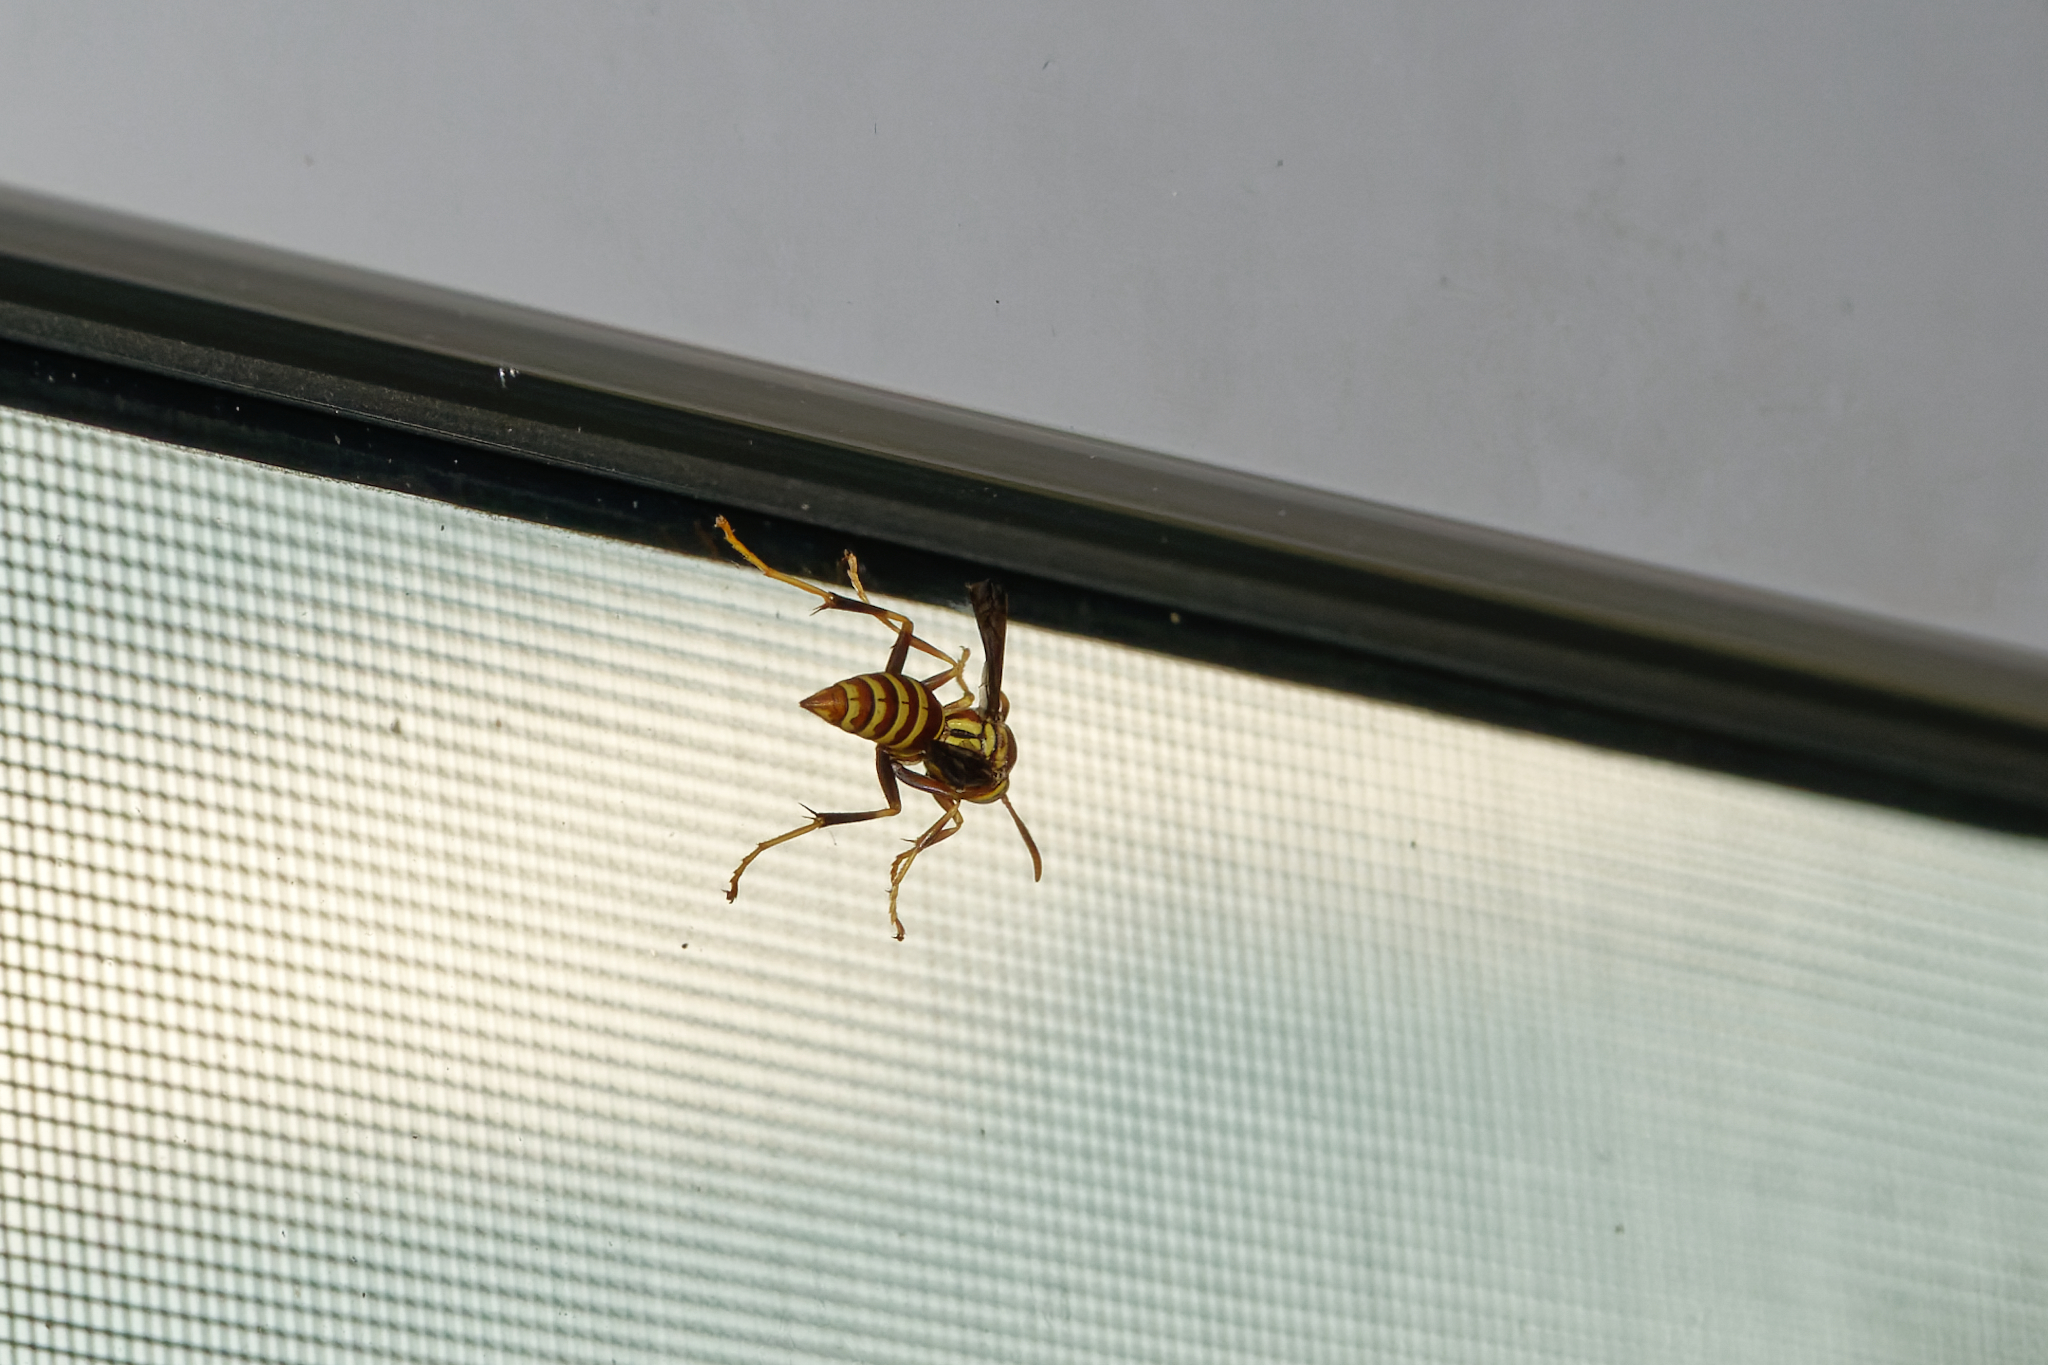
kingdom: Animalia
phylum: Arthropoda
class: Insecta
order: Hymenoptera
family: Eumenidae
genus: Polistes
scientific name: Polistes exclamans
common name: Paper wasp
